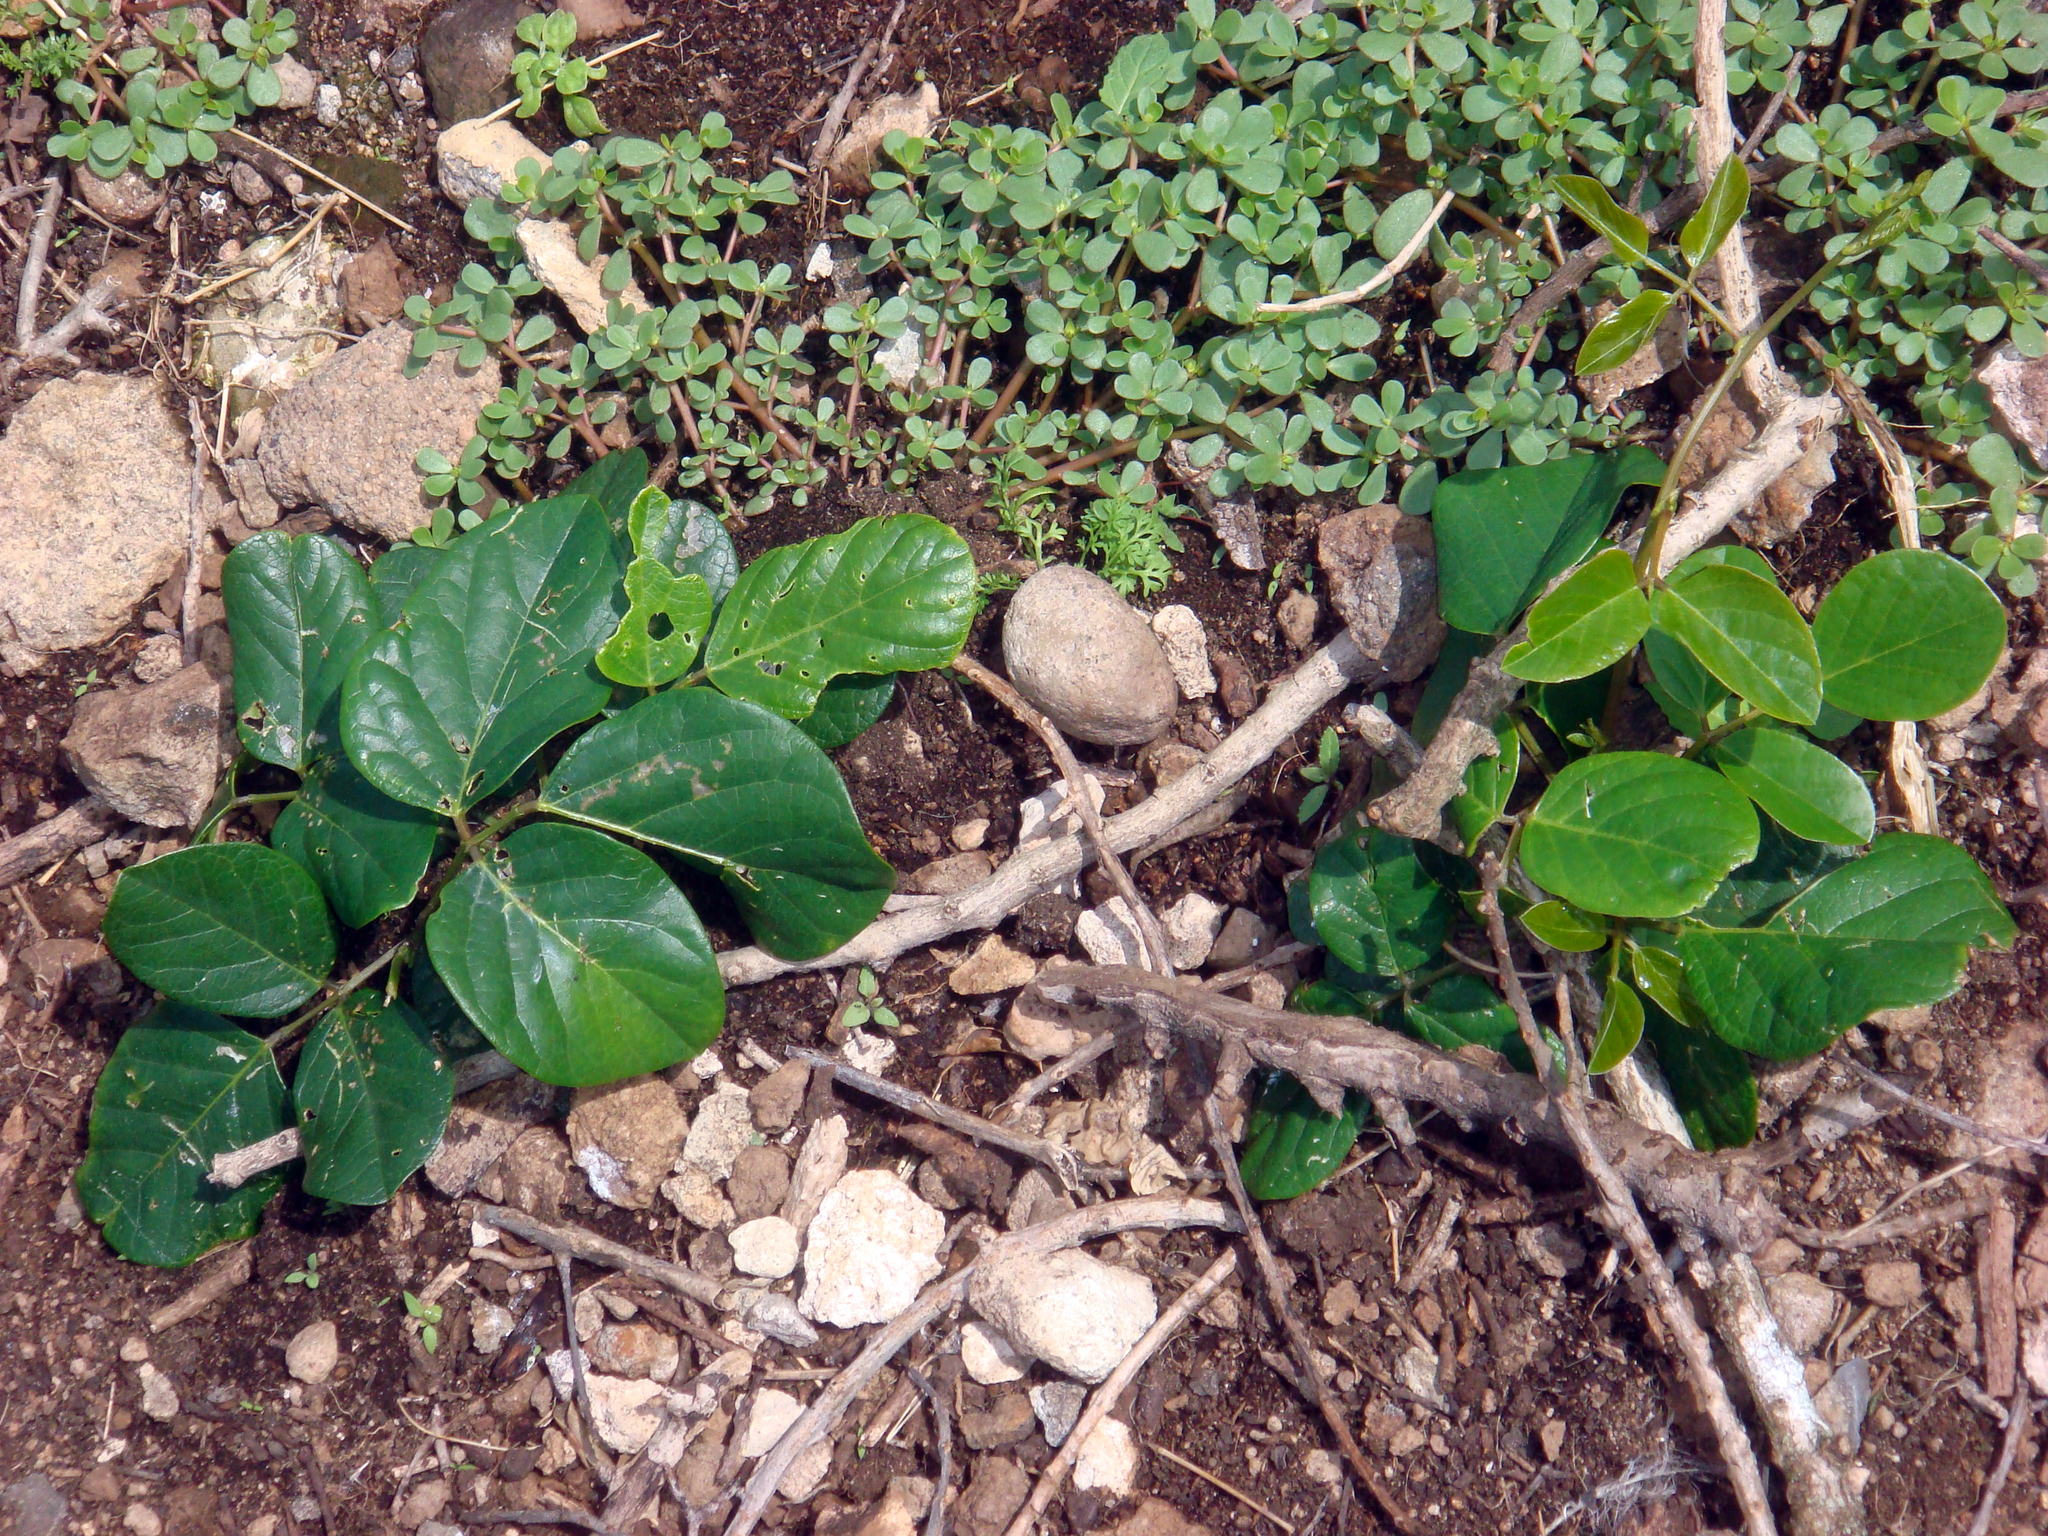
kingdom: Plantae
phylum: Tracheophyta
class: Magnoliopsida
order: Fabales
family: Fabaceae
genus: Canavalia
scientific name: Canavalia rosea
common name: Beach-bean
